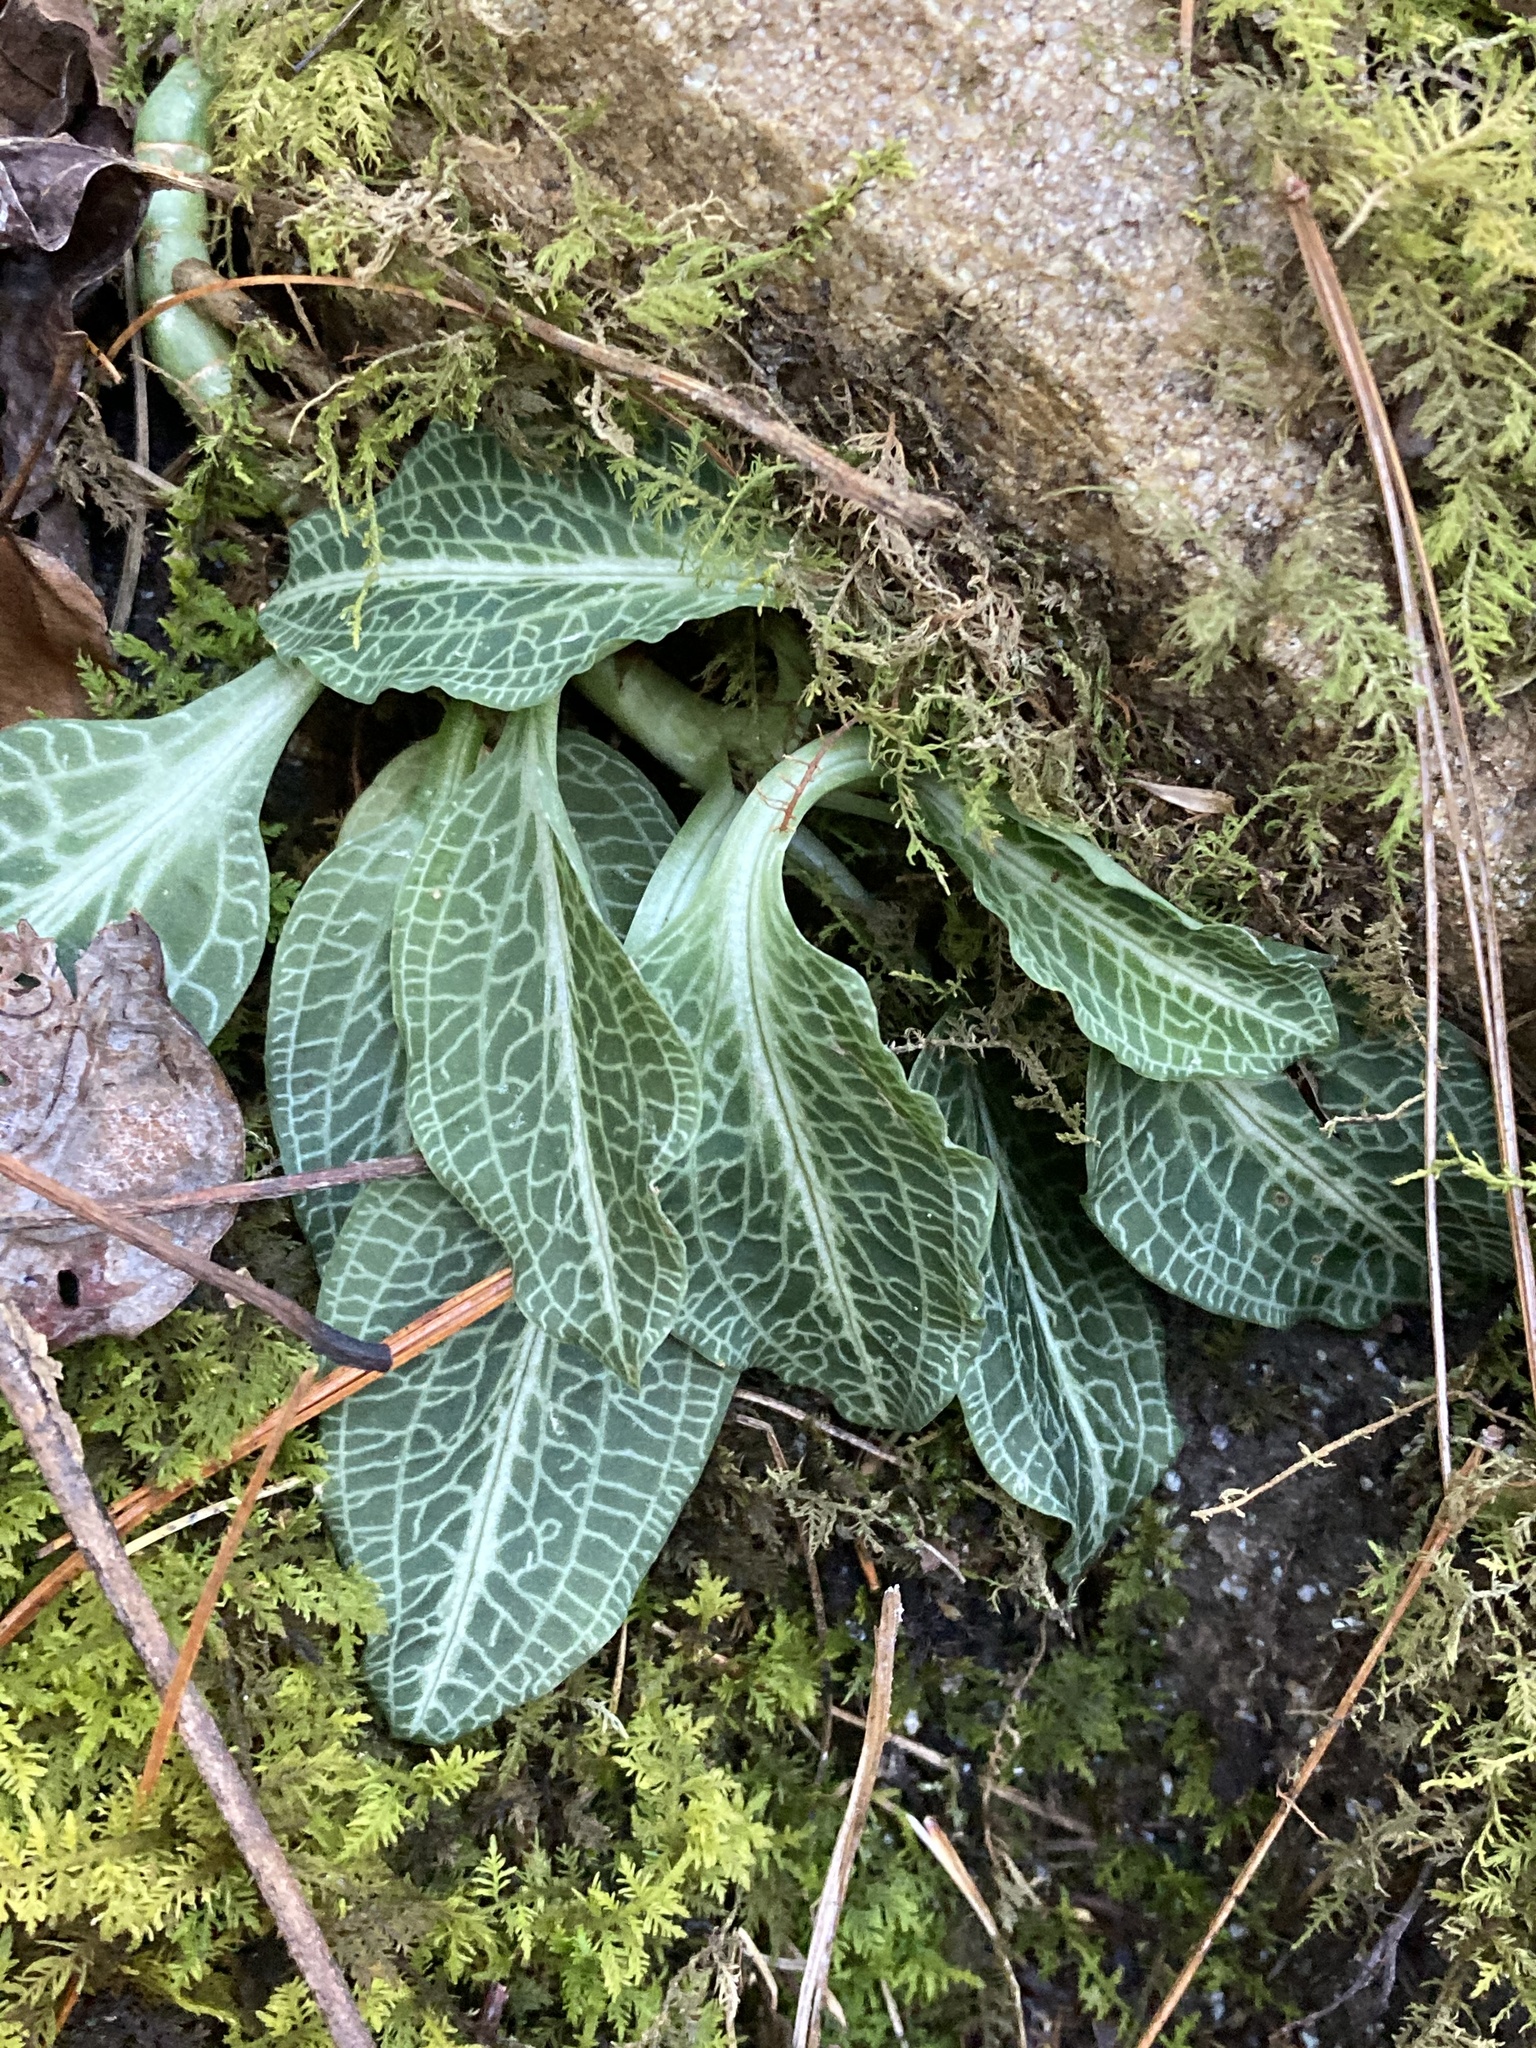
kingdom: Plantae
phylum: Tracheophyta
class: Liliopsida
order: Asparagales
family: Orchidaceae
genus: Goodyera
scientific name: Goodyera pubescens
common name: Downy rattlesnake-plantain
